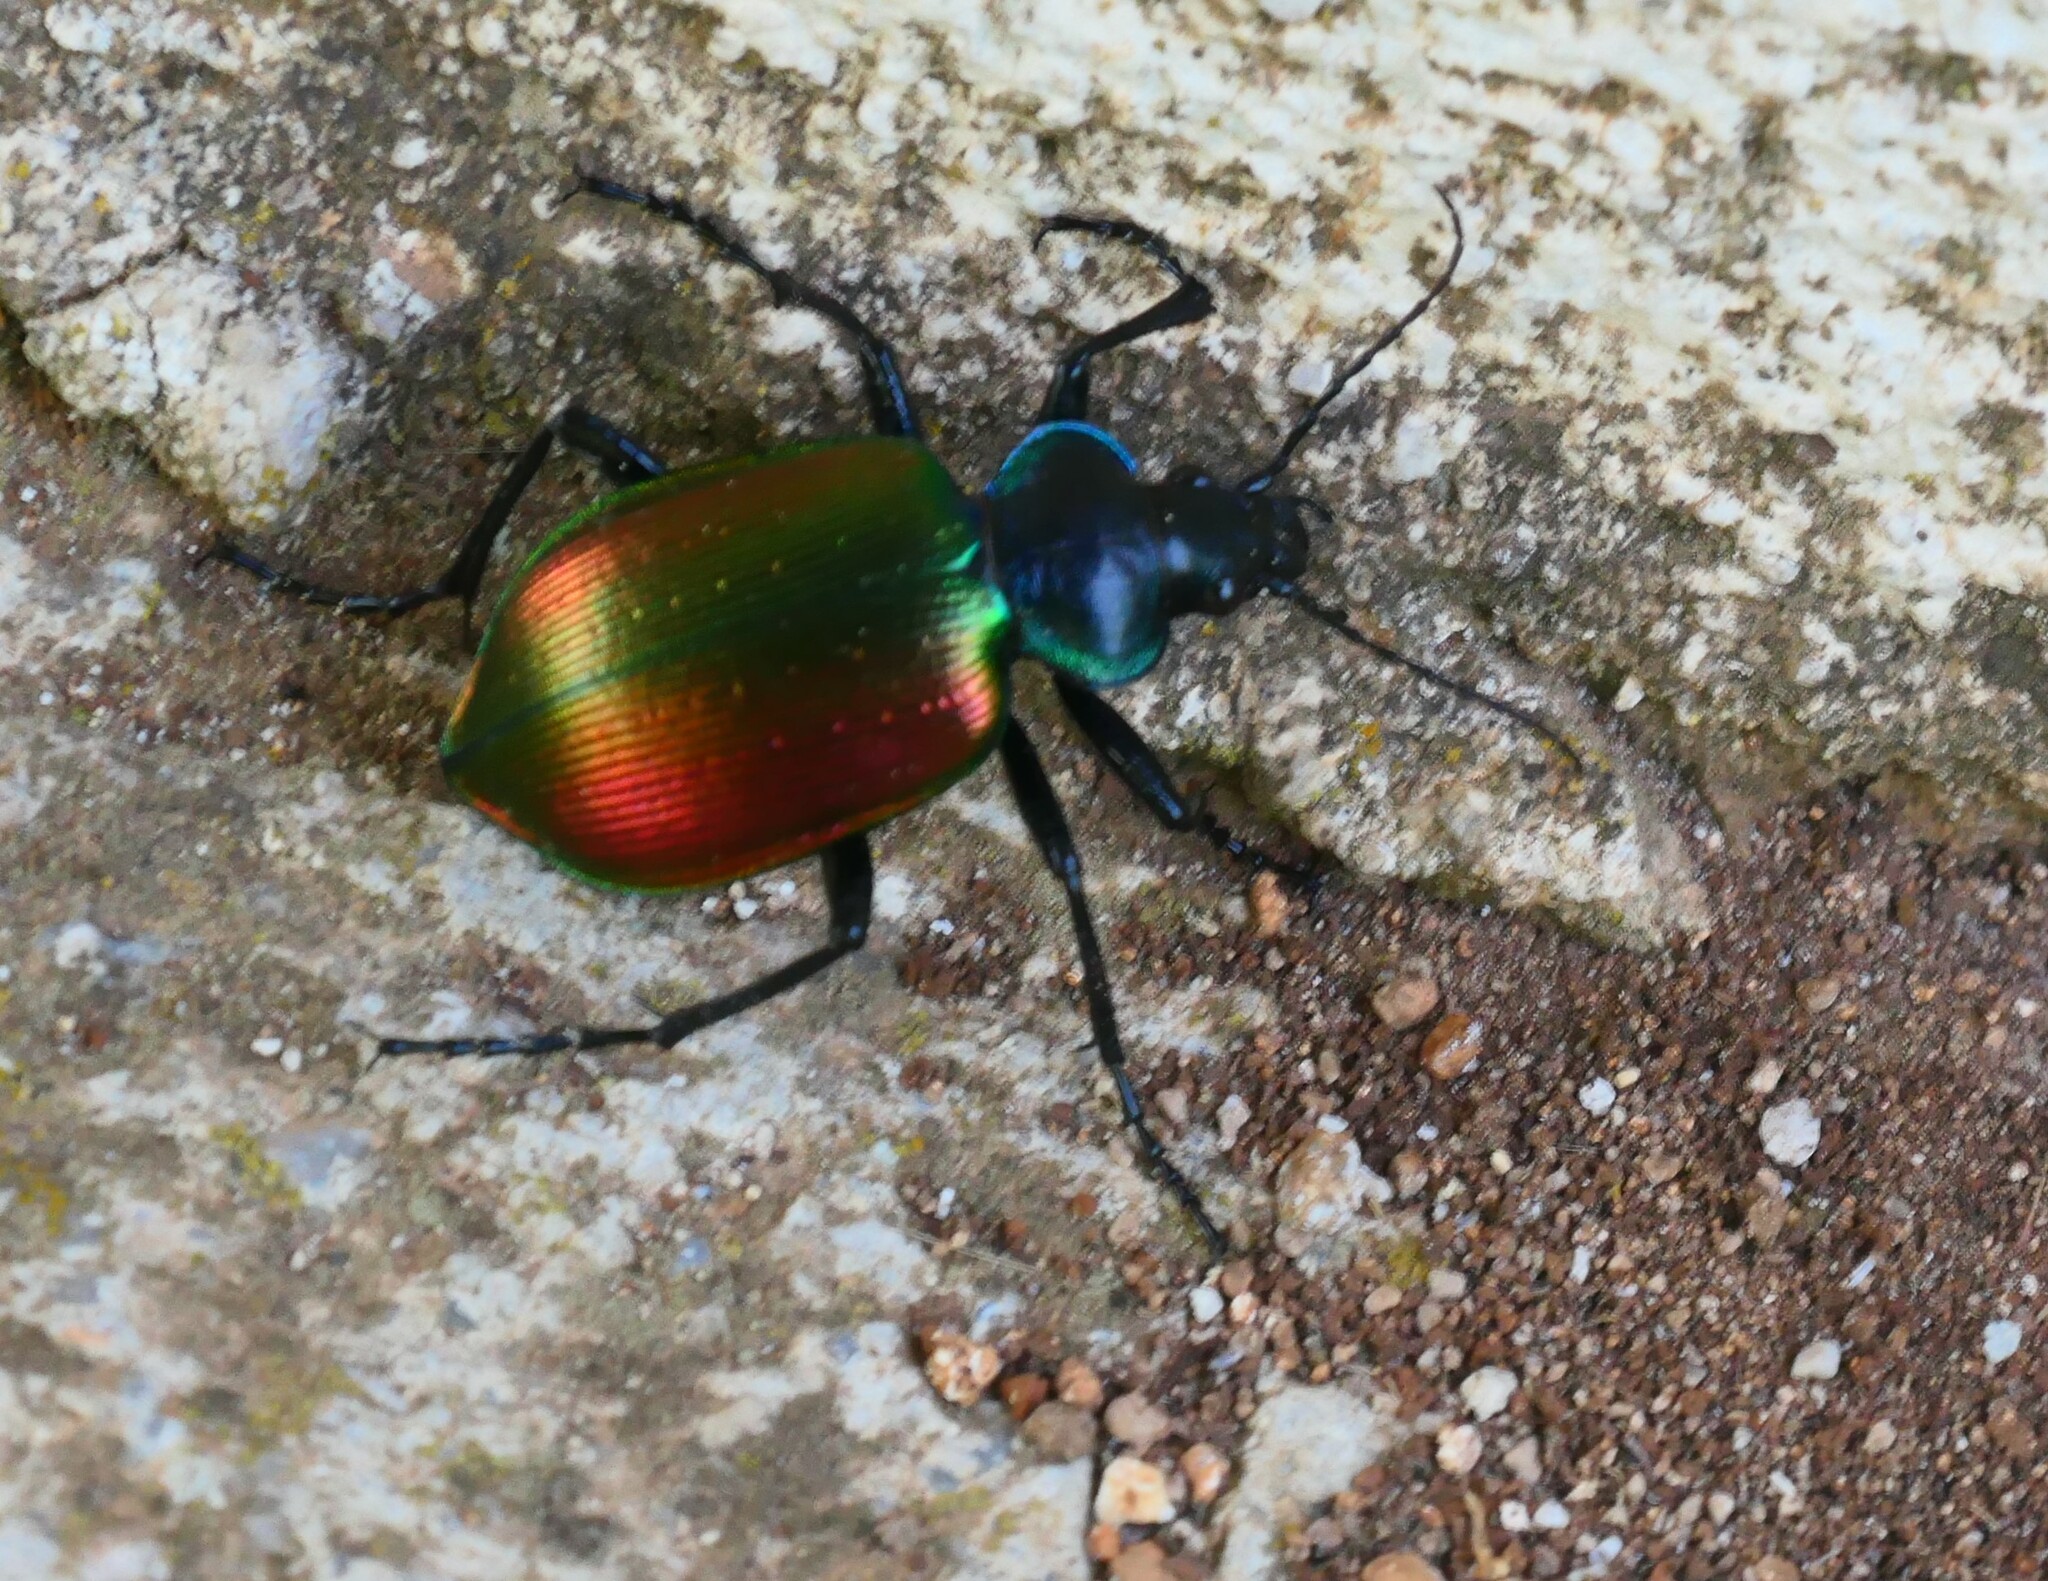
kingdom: Animalia
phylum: Arthropoda
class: Insecta
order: Coleoptera
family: Carabidae
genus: Calosoma
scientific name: Calosoma sycophanta
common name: Forest caterpillar hunter
